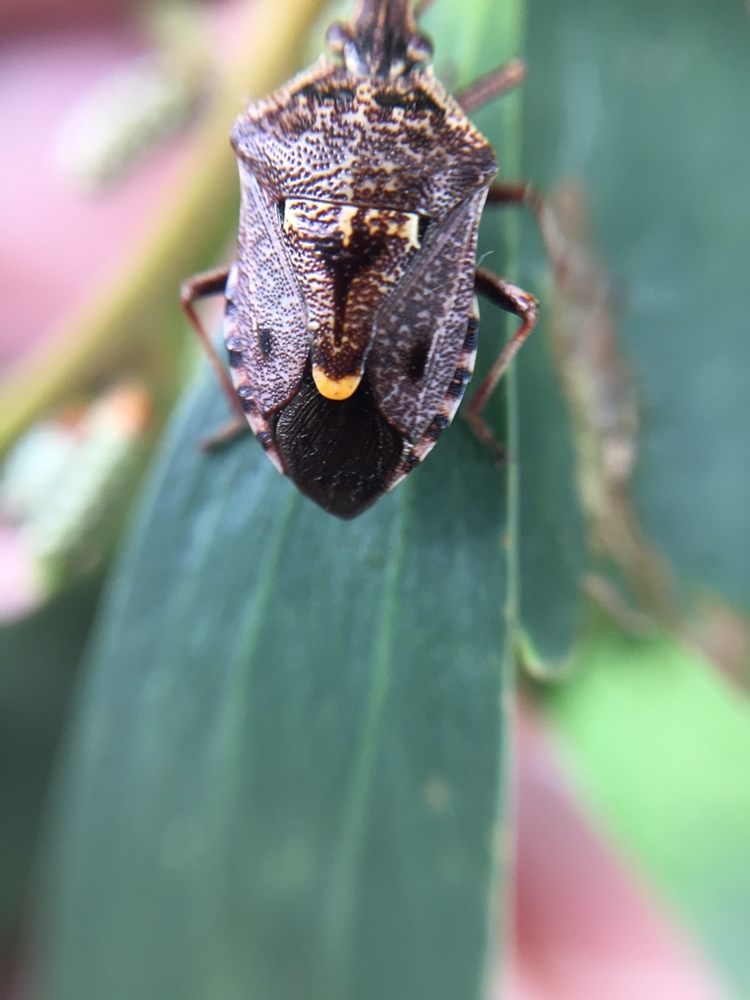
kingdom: Animalia
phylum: Arthropoda
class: Insecta
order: Hemiptera
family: Pentatomidae
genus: Cermatulus
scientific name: Cermatulus nasalis
